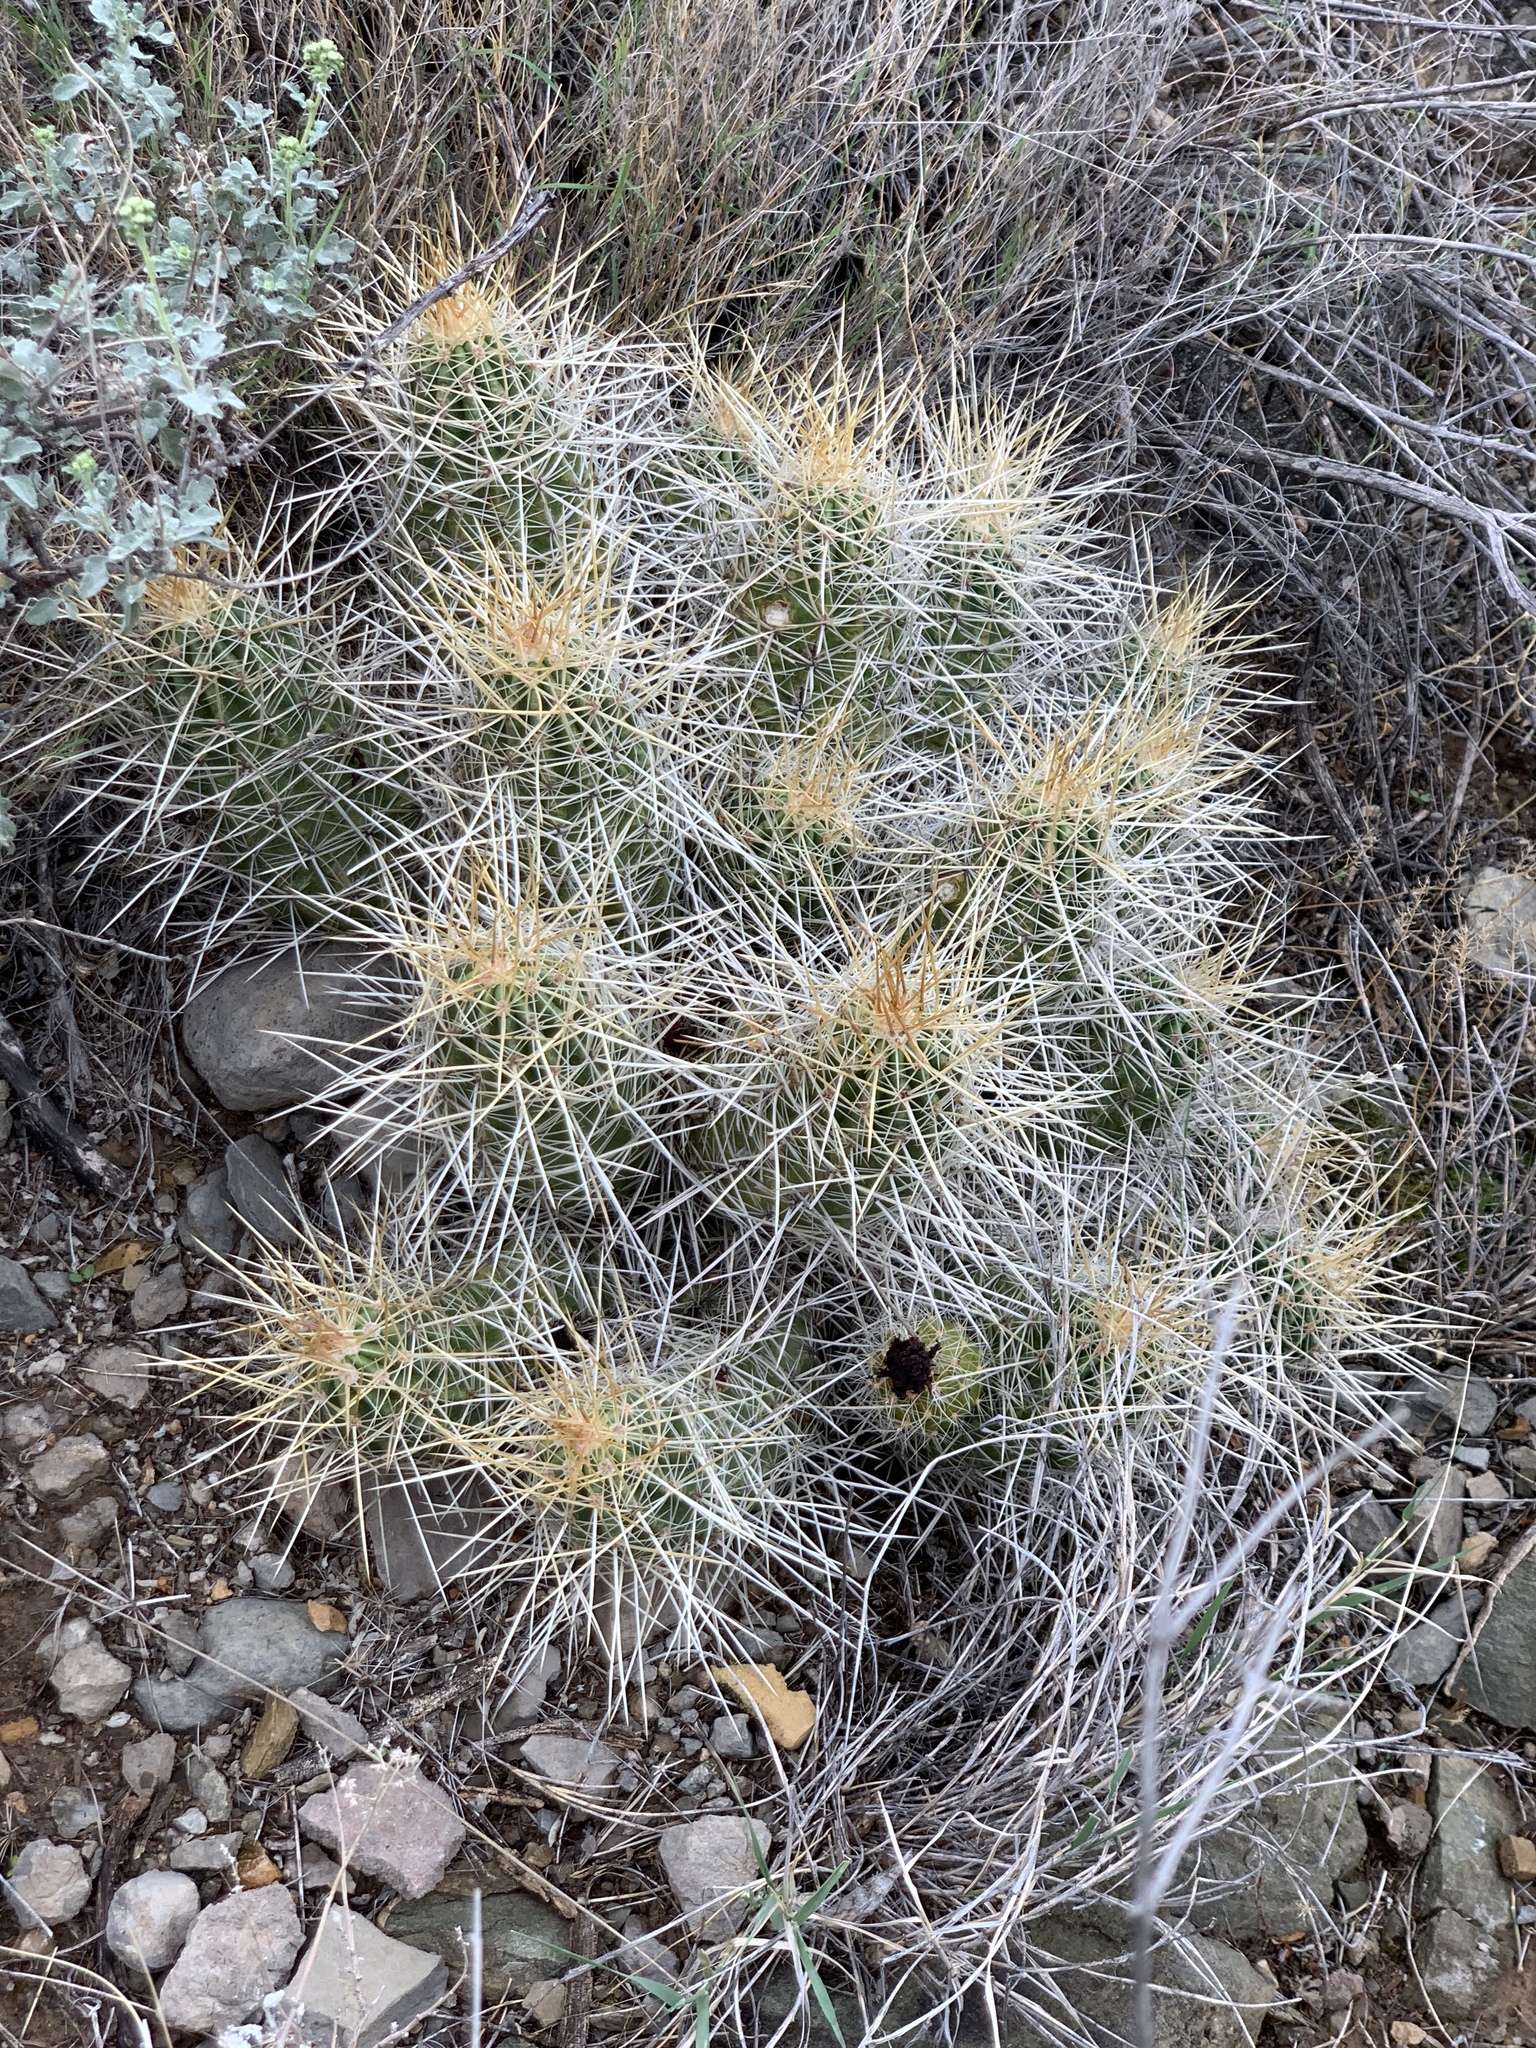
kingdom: Plantae
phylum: Tracheophyta
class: Magnoliopsida
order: Caryophyllales
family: Cactaceae
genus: Echinocereus
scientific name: Echinocereus stramineus
